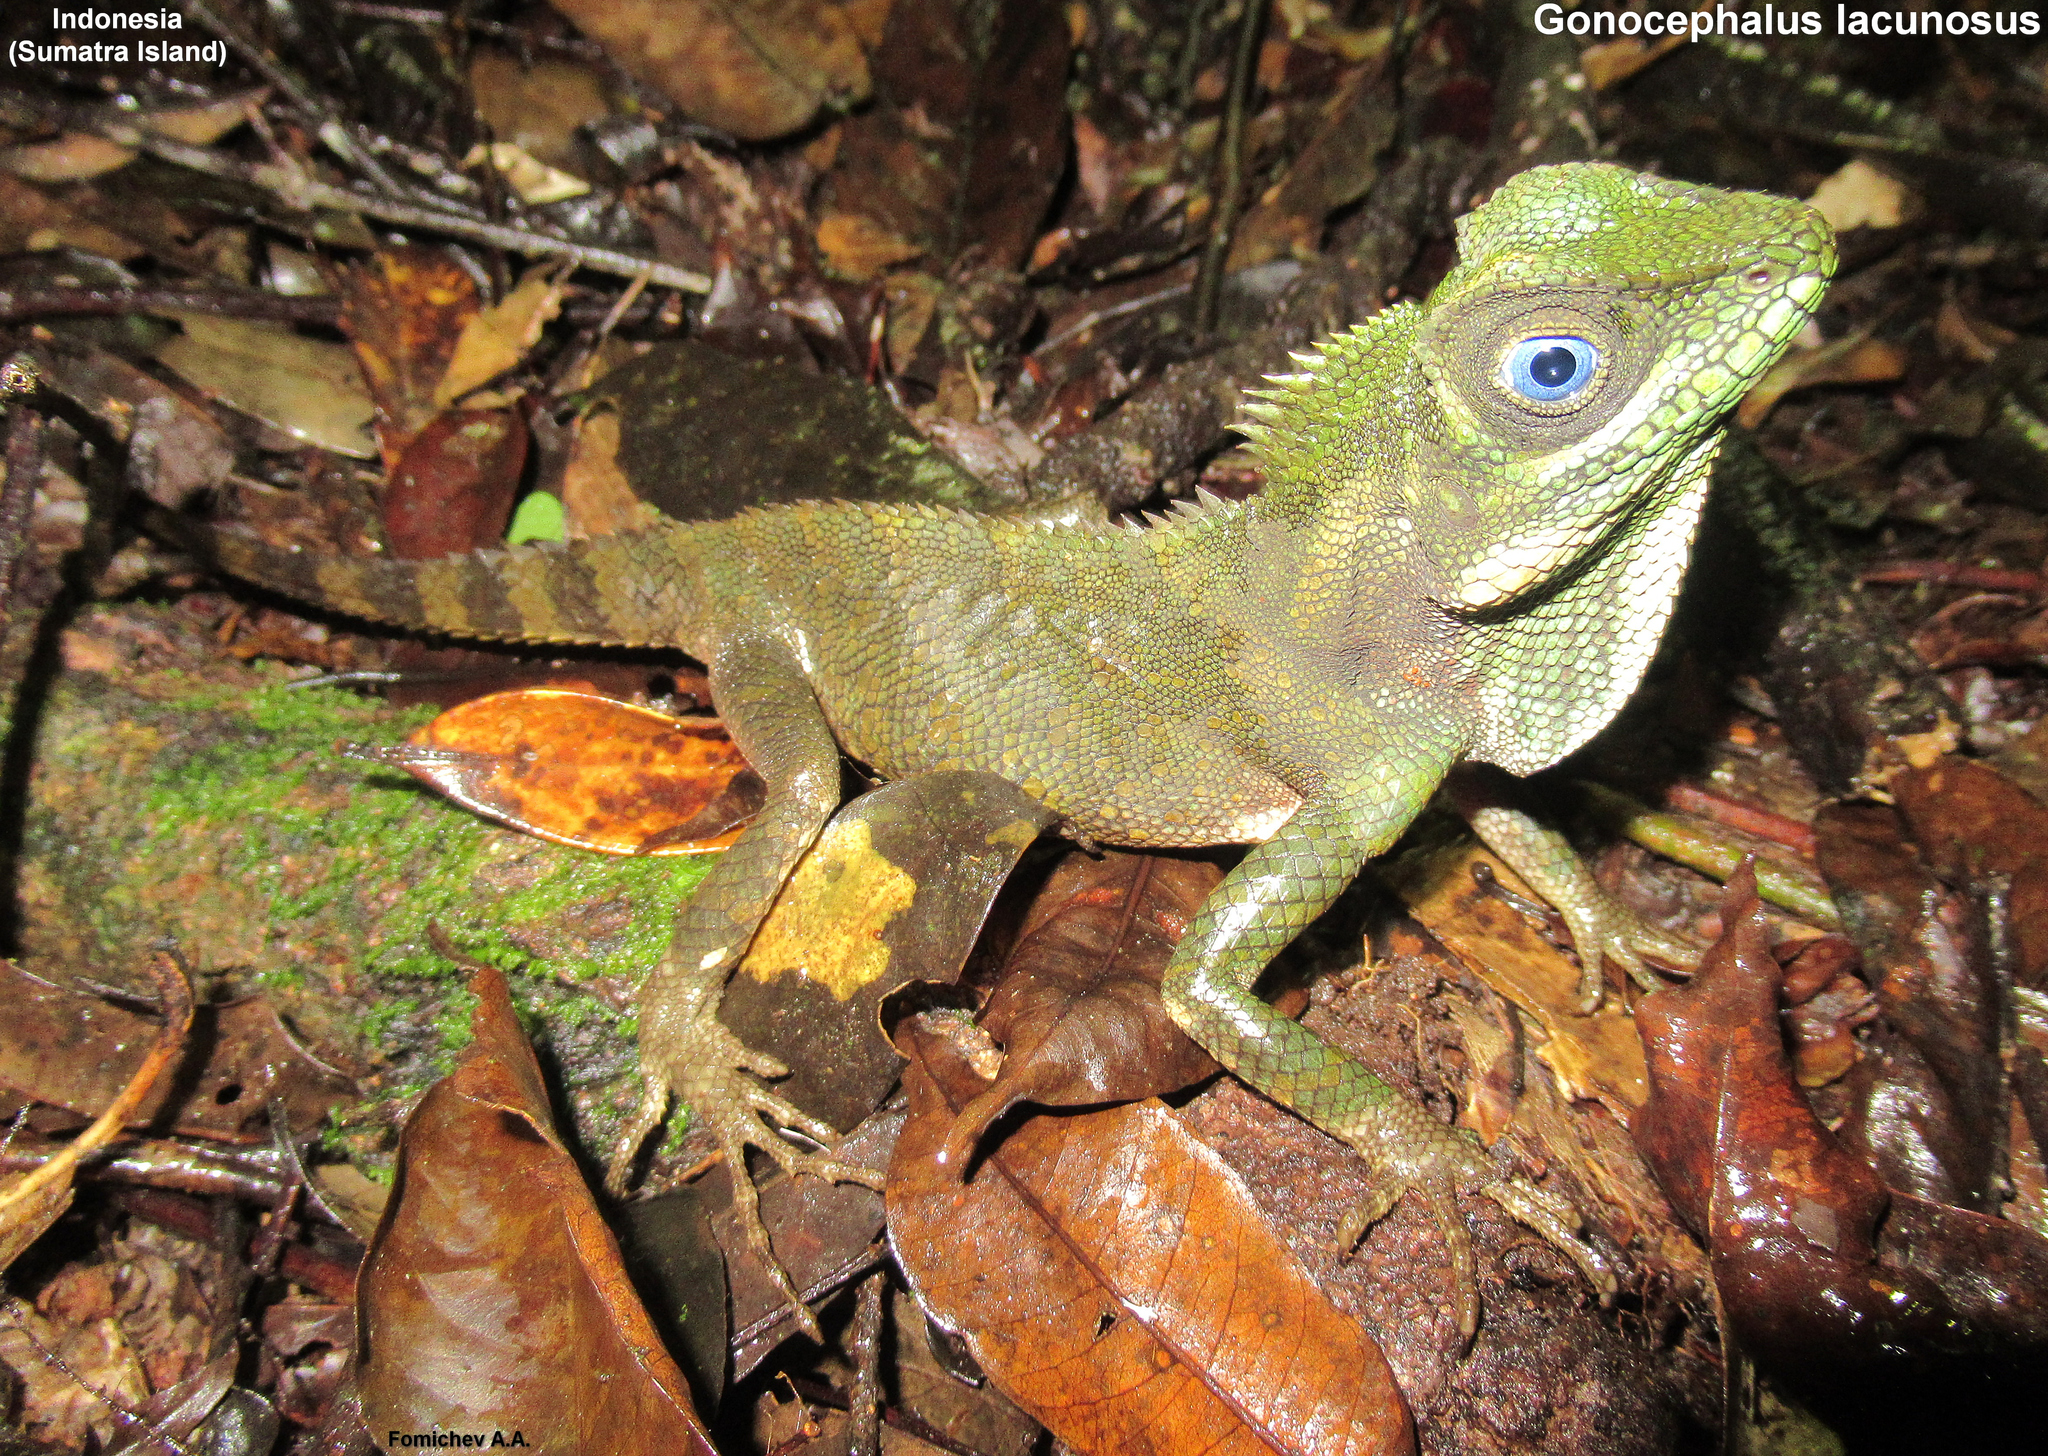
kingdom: Animalia
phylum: Chordata
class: Squamata
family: Agamidae
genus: Gonocephalus
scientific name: Gonocephalus lacunosus
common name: Manthey's forest dragon
